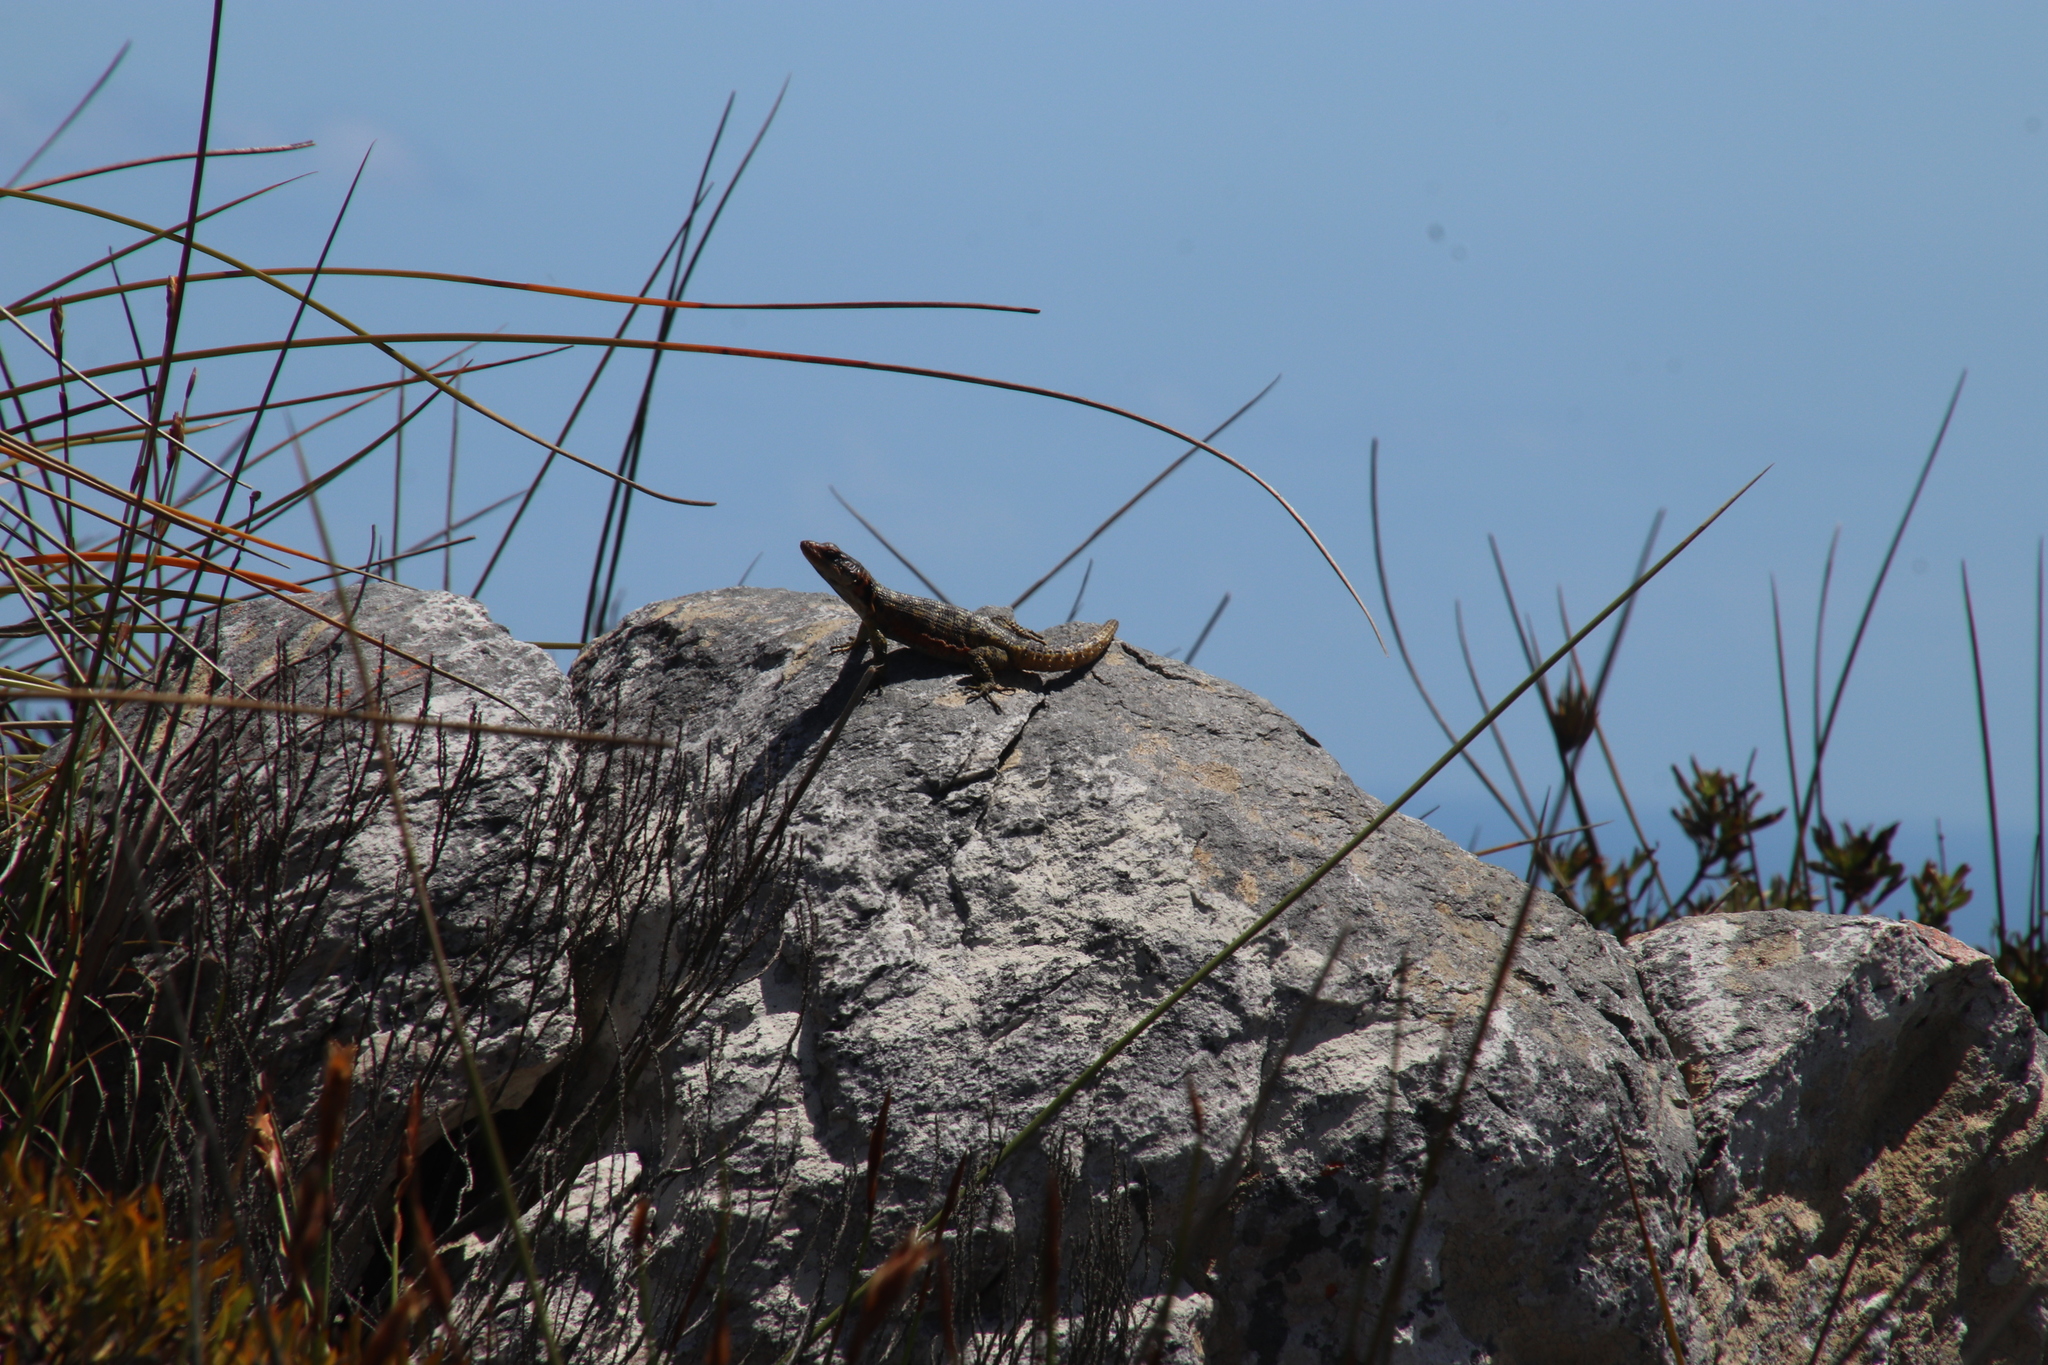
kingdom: Animalia
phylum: Chordata
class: Squamata
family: Cordylidae
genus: Pseudocordylus
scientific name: Pseudocordylus microlepidotus
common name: Cape crag lizard
